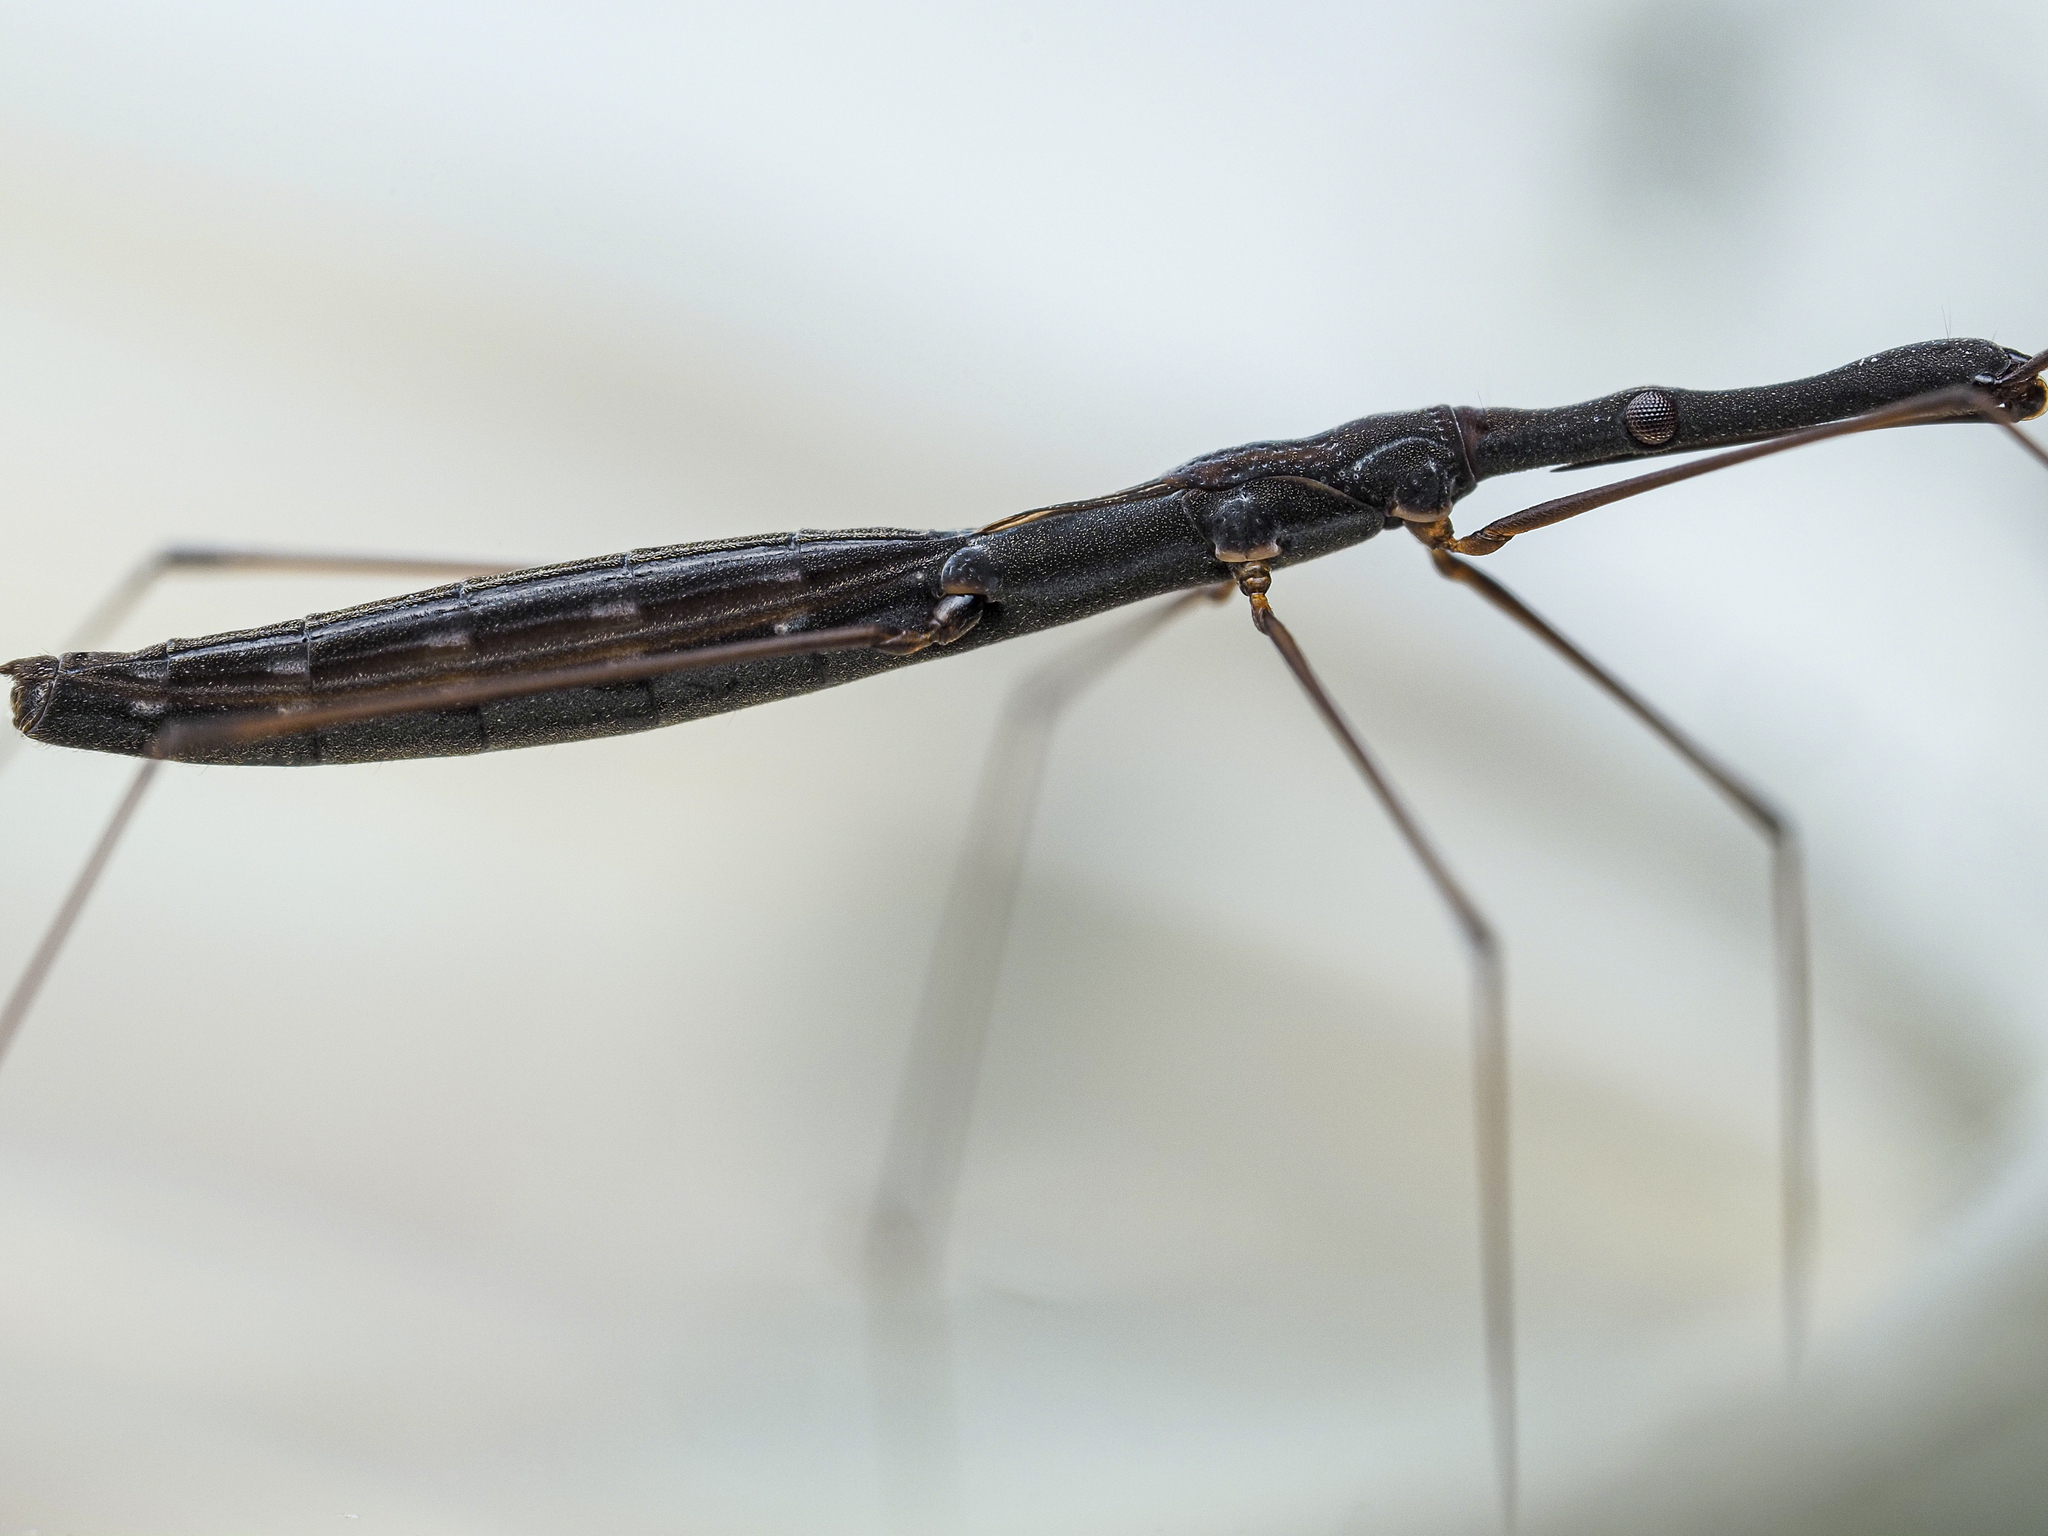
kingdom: Animalia
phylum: Arthropoda
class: Insecta
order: Hemiptera
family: Hydrometridae
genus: Hydrometra
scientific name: Hydrometra stagnorum
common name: Water measurer
